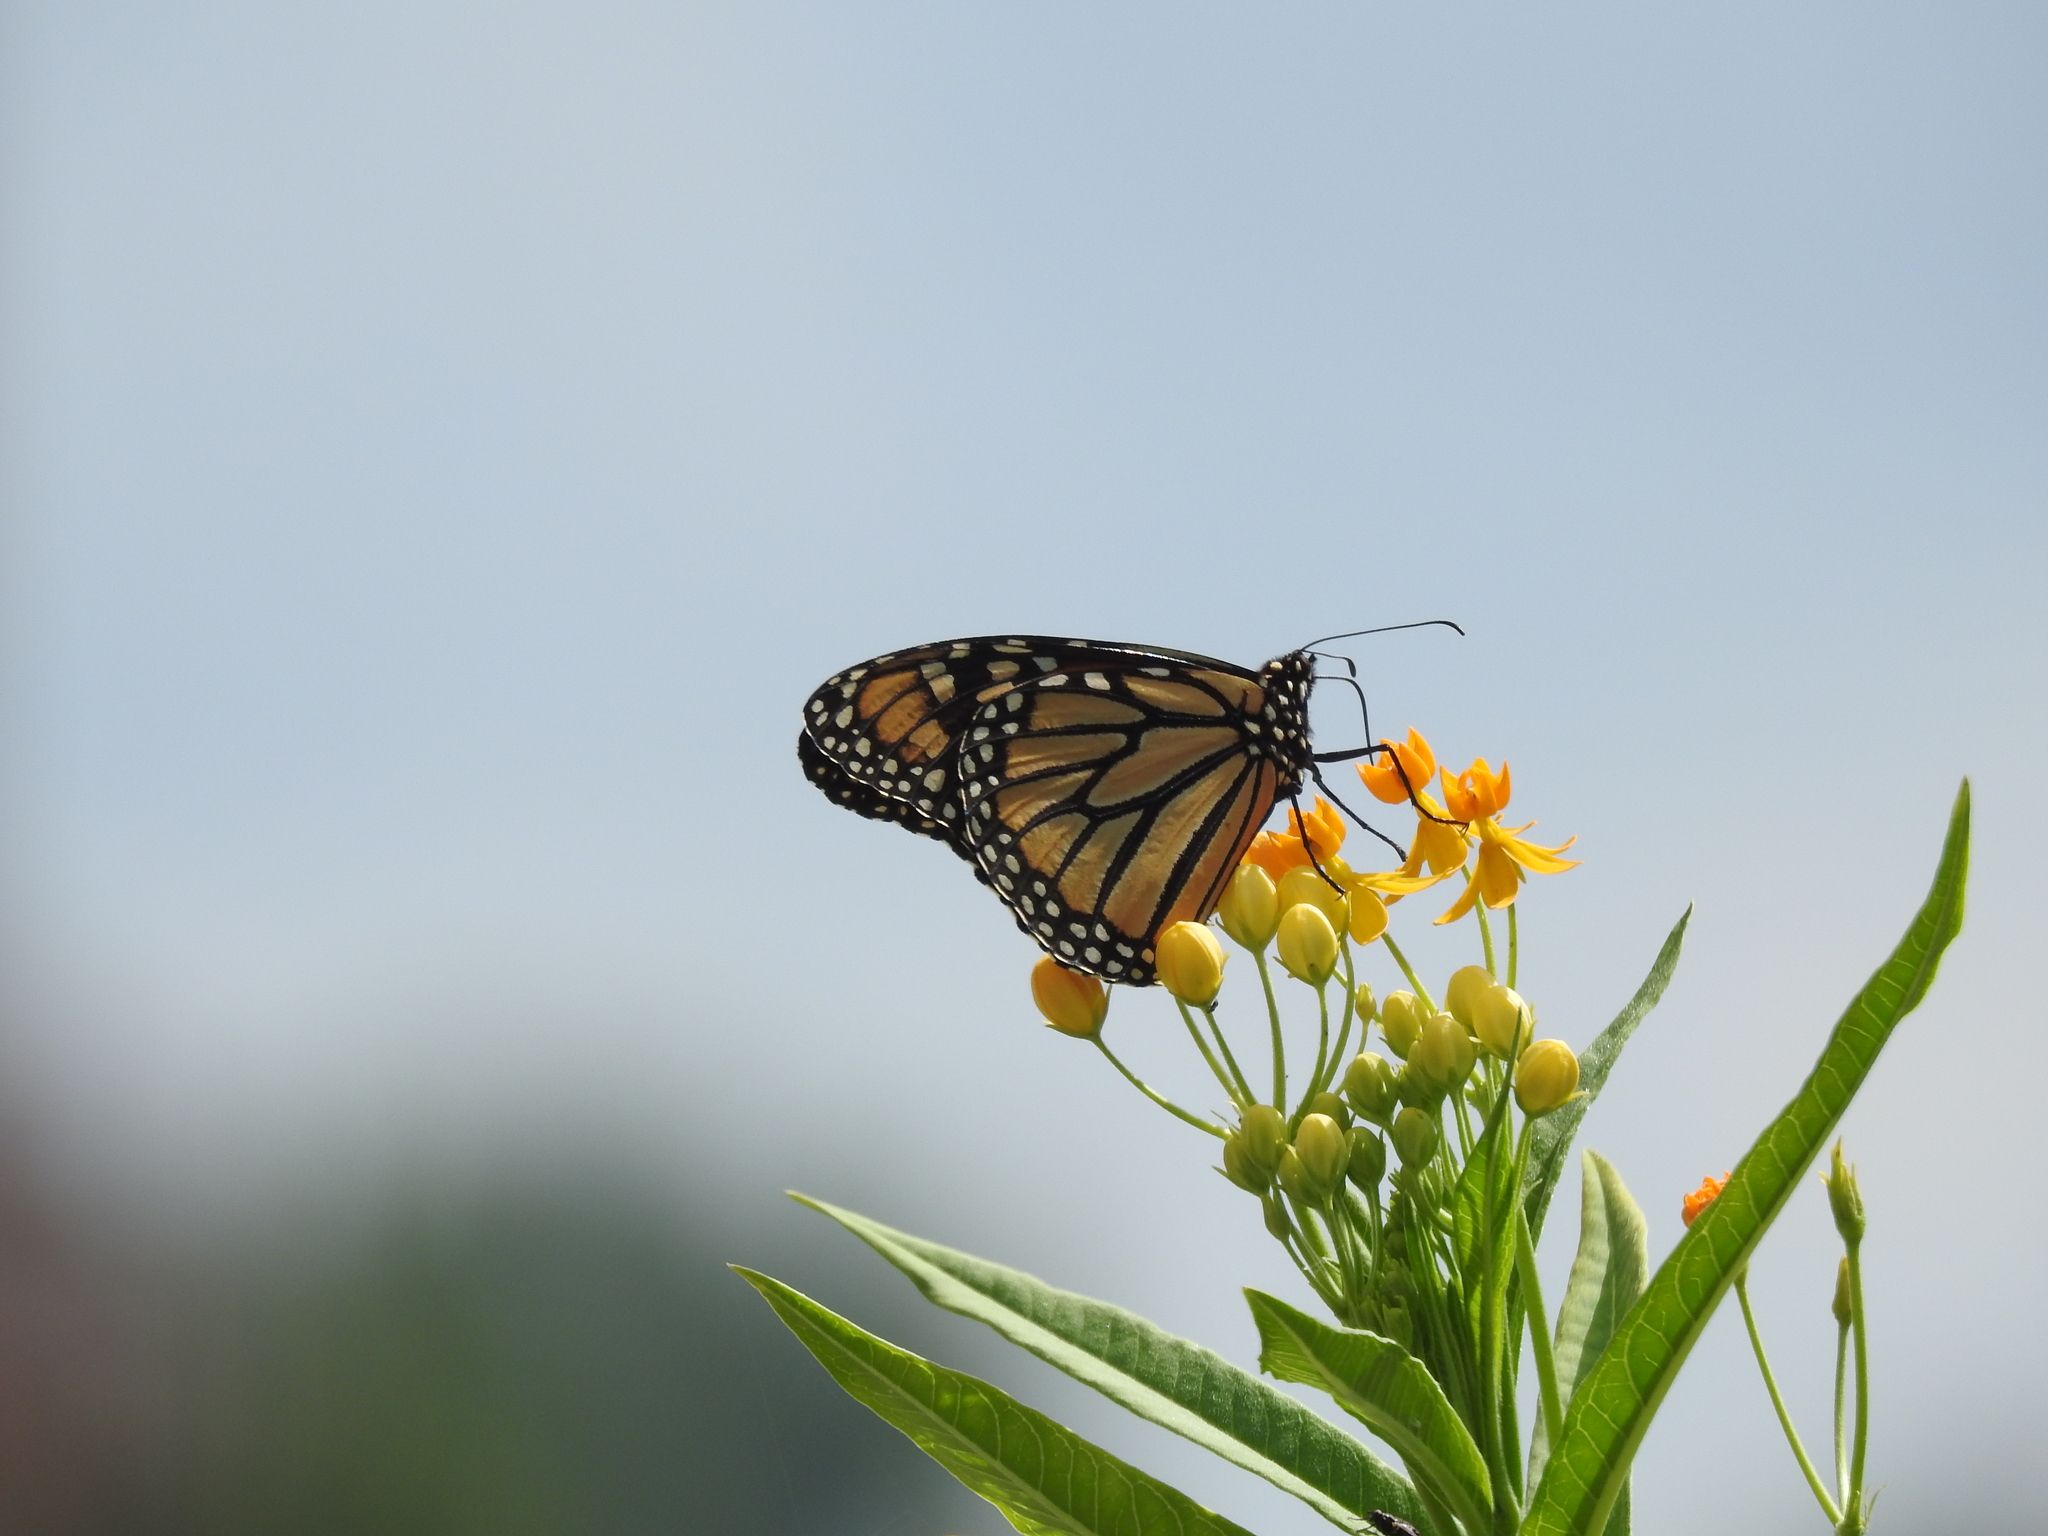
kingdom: Animalia
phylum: Arthropoda
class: Insecta
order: Lepidoptera
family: Nymphalidae
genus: Danaus
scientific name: Danaus plexippus
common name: Monarch
